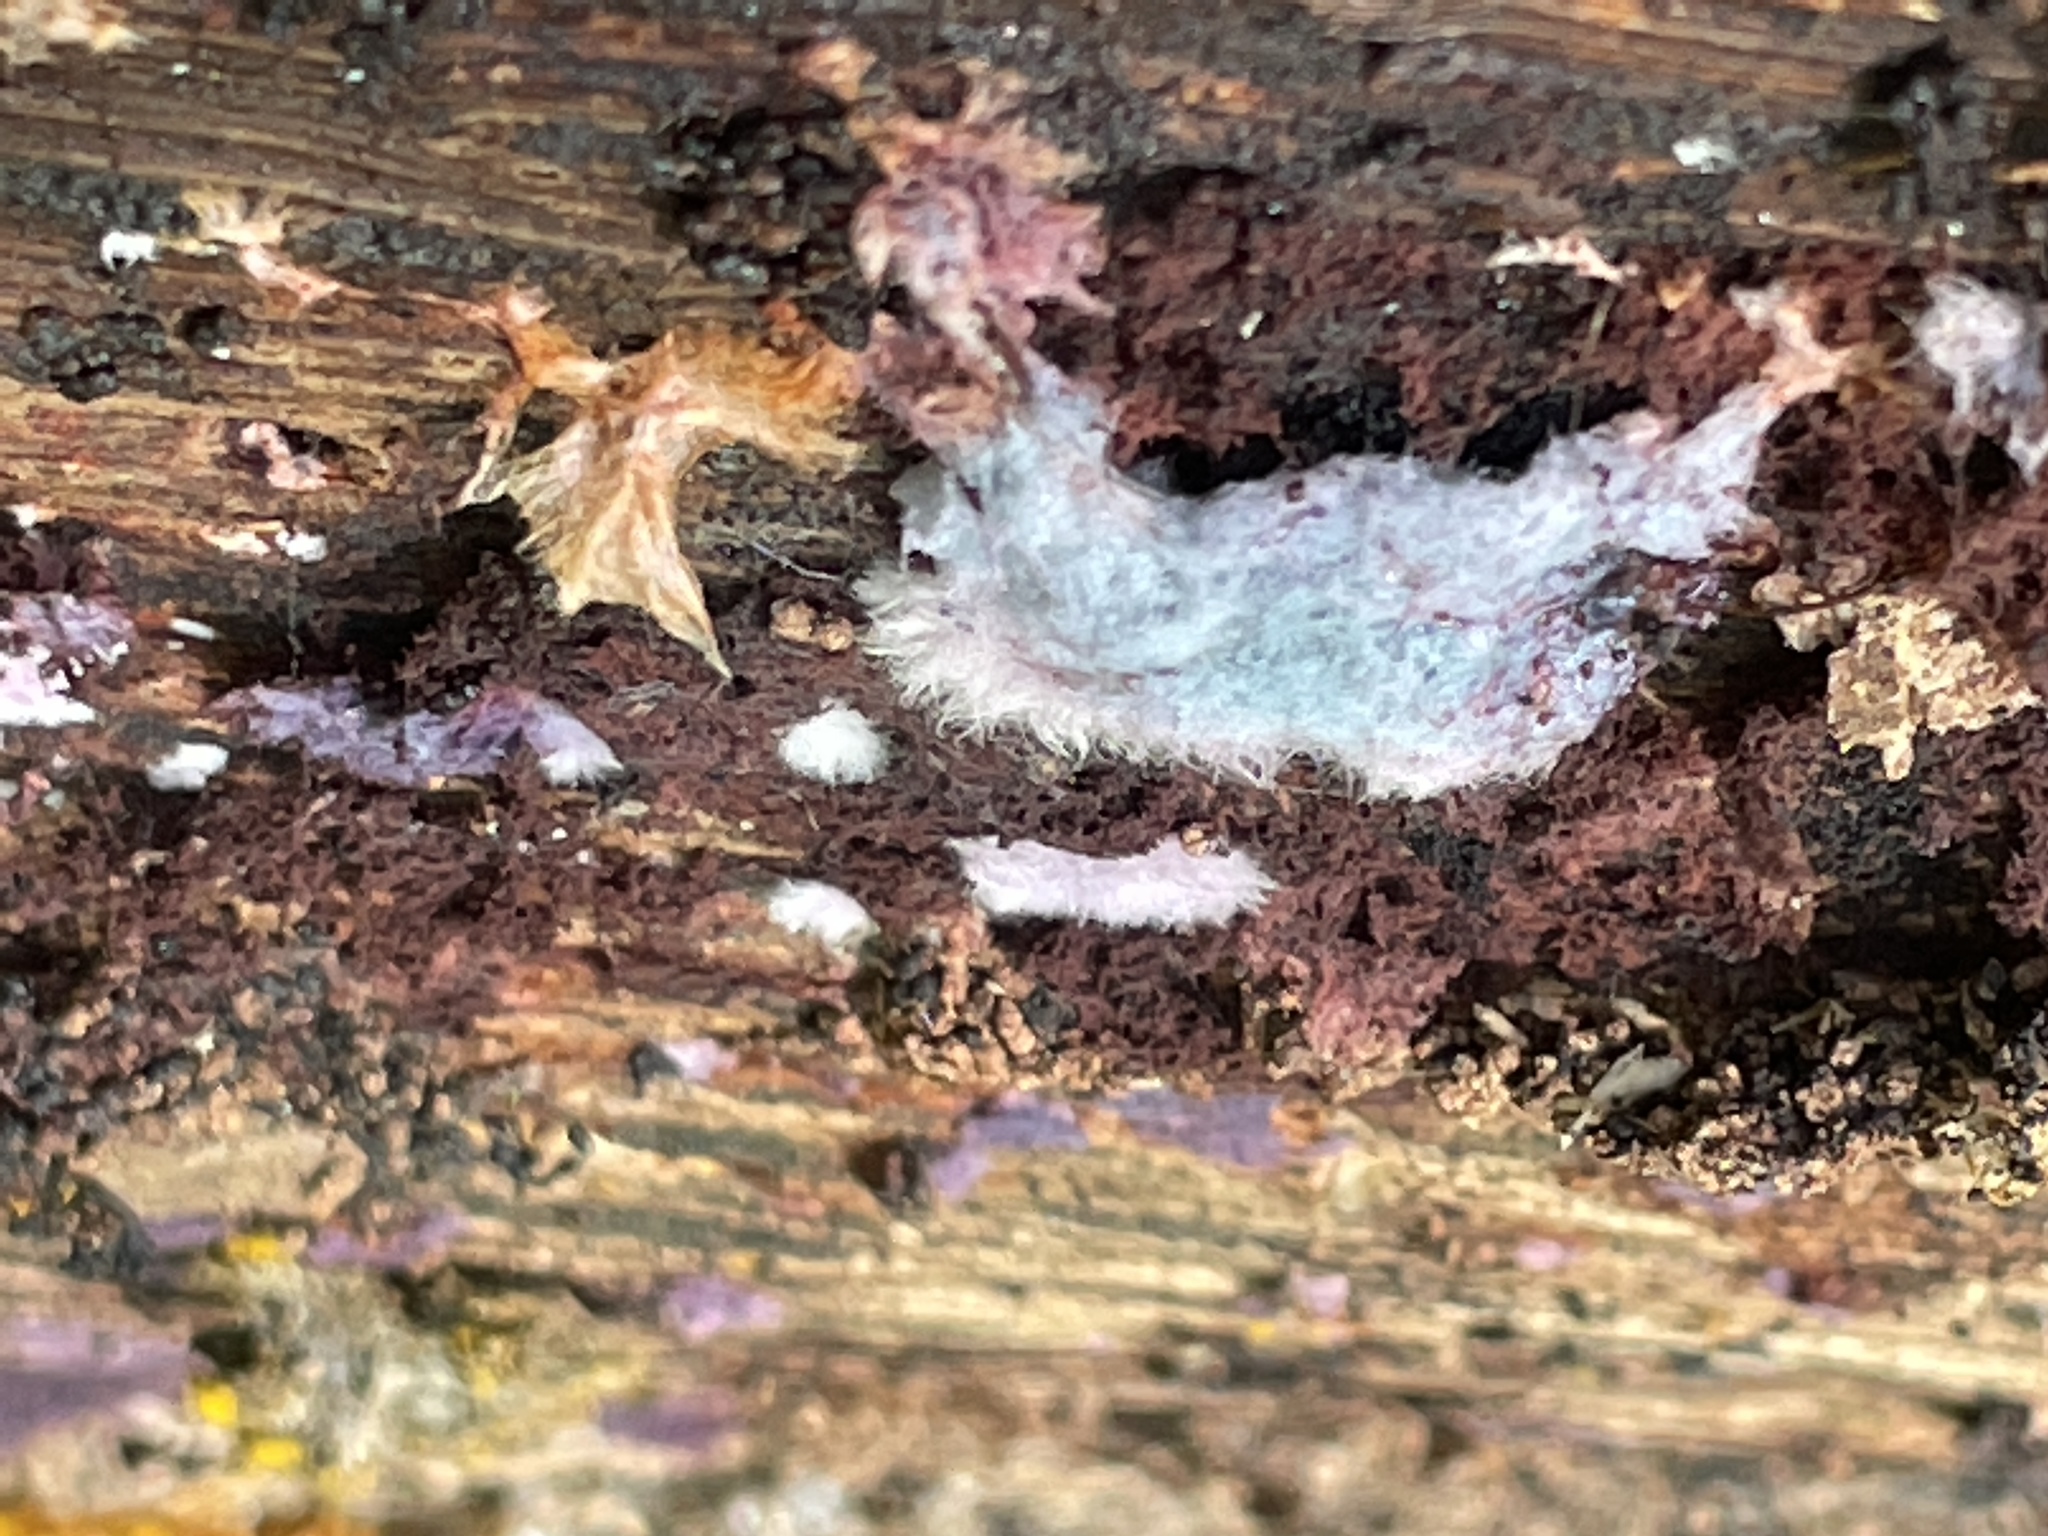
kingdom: Fungi
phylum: Basidiomycota
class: Agaricomycetes
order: Corticiales
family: Punctulariaceae
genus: Punctularia
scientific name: Punctularia atropurpurascens
